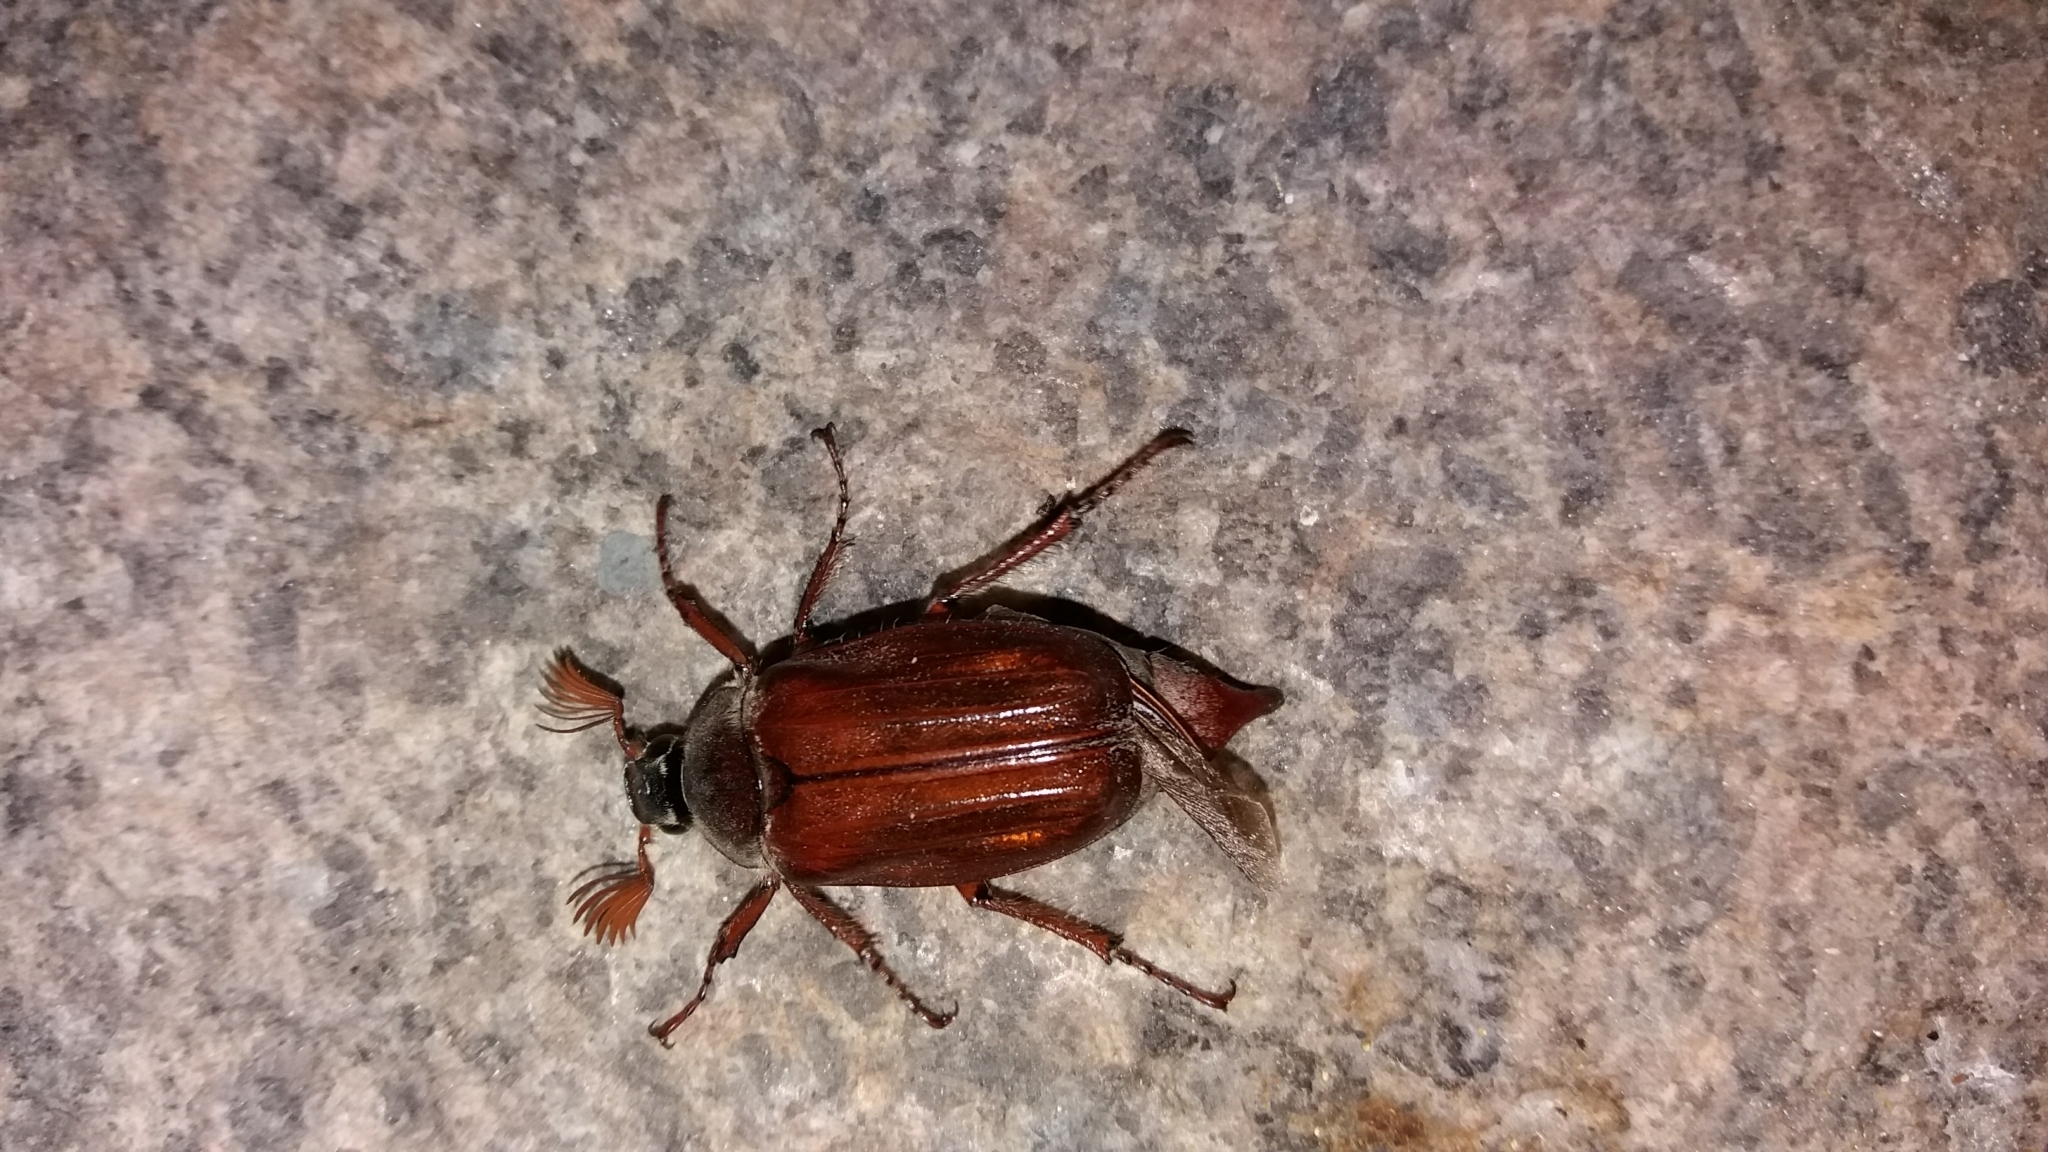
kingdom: Animalia
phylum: Arthropoda
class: Insecta
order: Coleoptera
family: Scarabaeidae
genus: Melolontha
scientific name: Melolontha melolontha
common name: Cockchafer maybeetle
